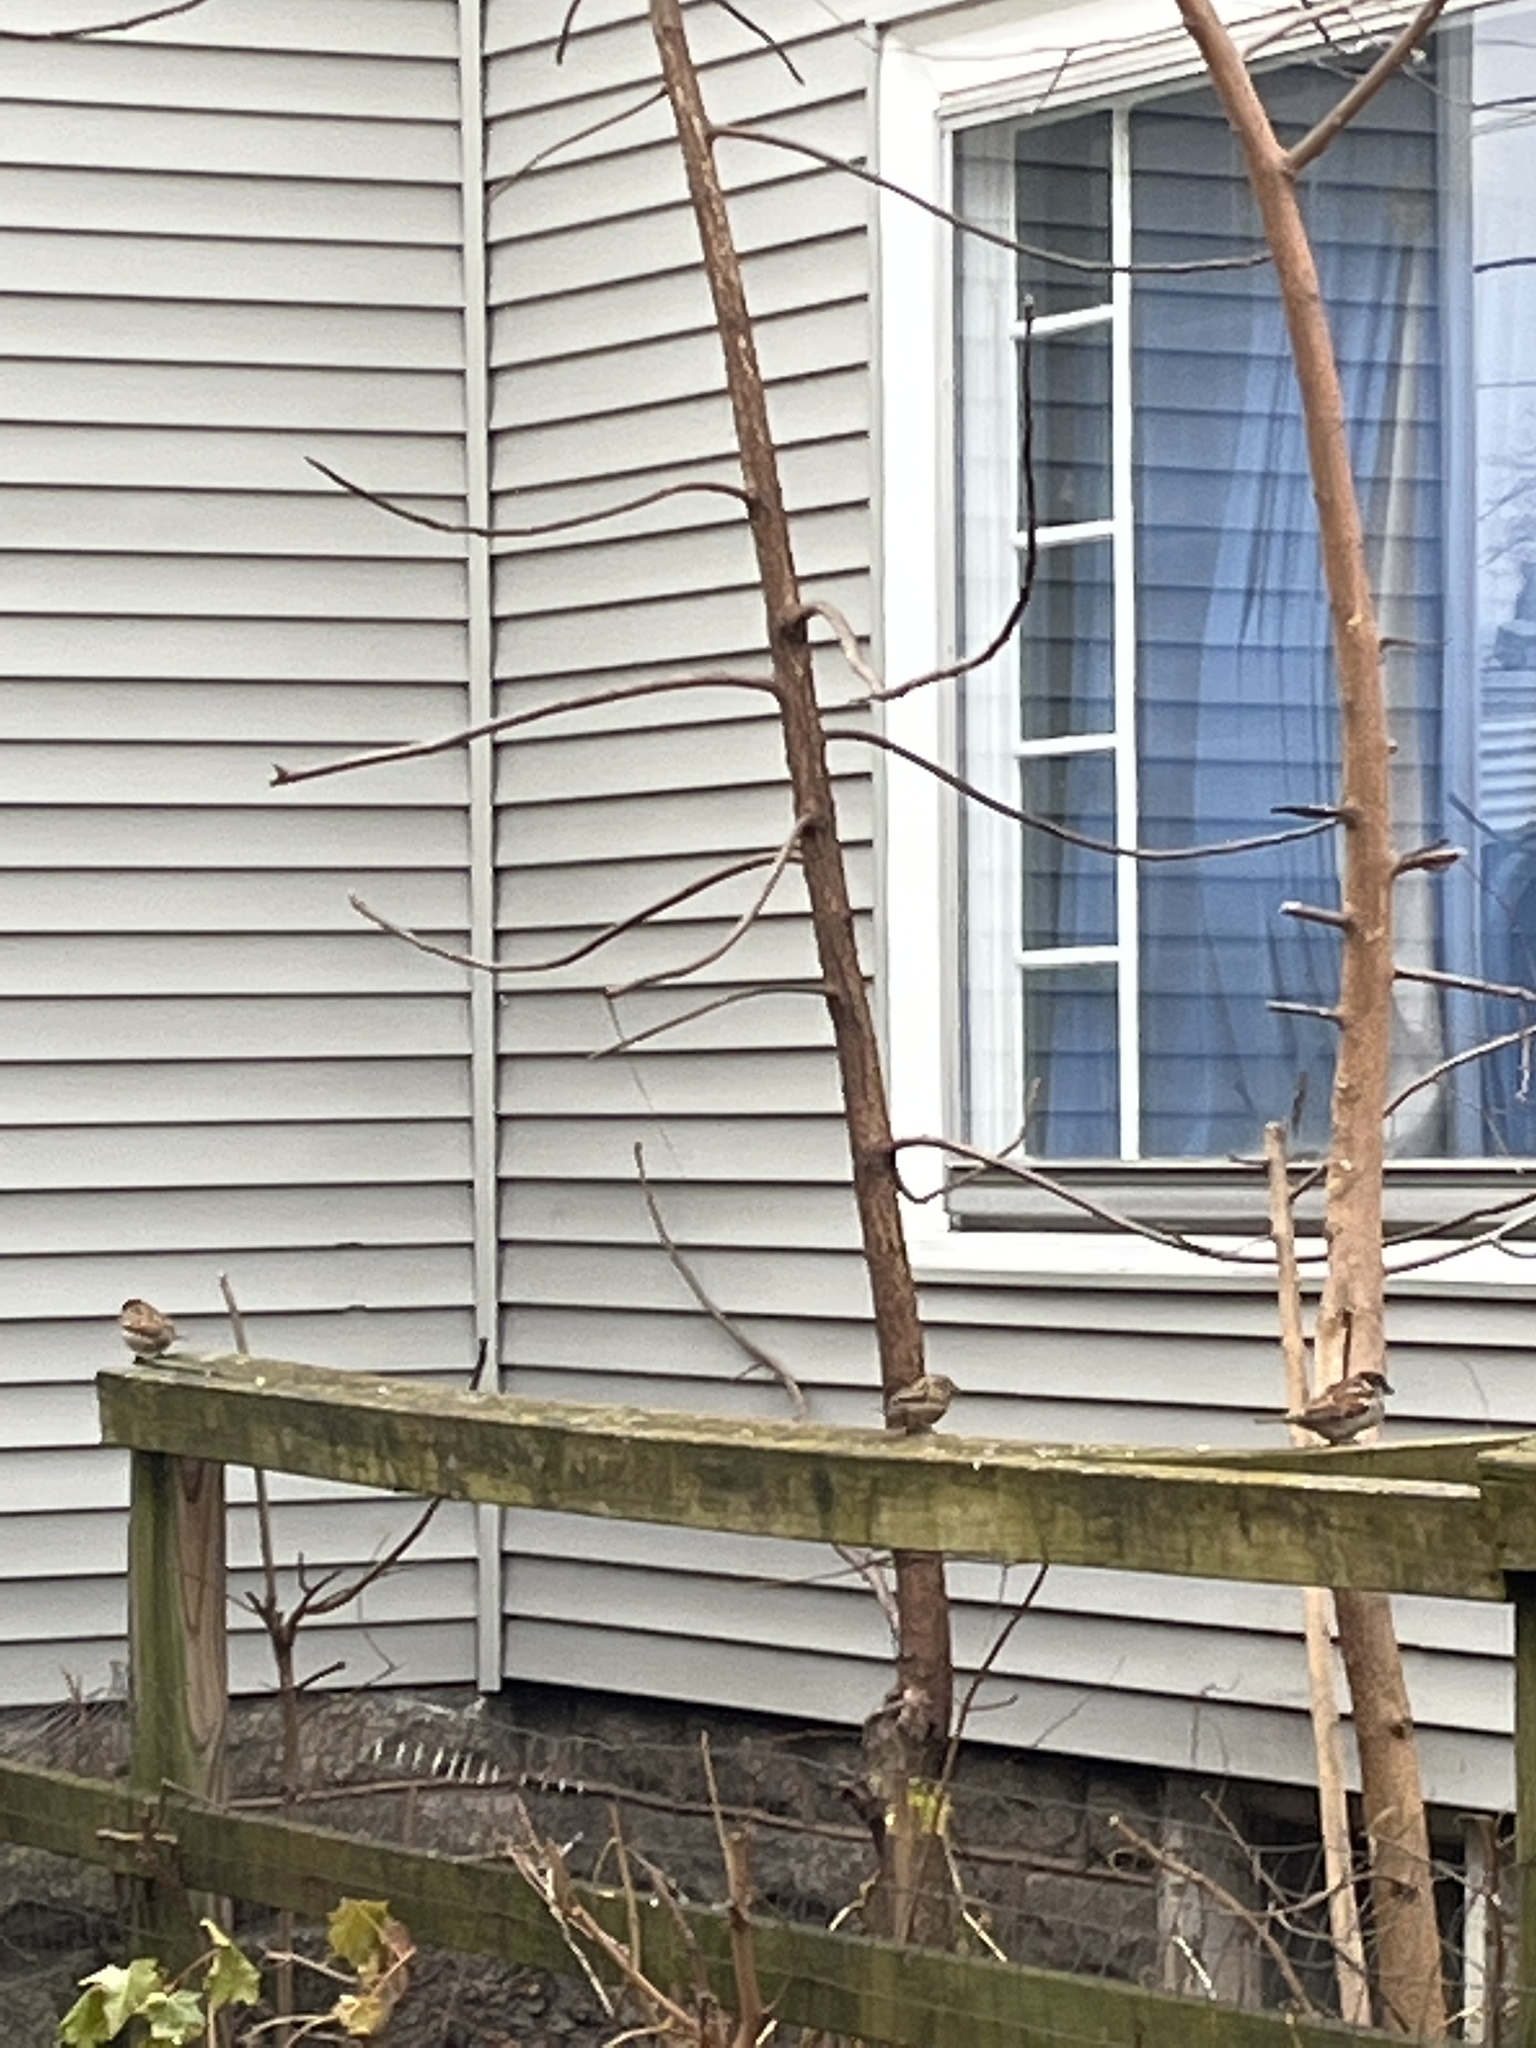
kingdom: Animalia
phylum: Chordata
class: Aves
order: Passeriformes
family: Passeridae
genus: Passer
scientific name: Passer domesticus
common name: House sparrow
